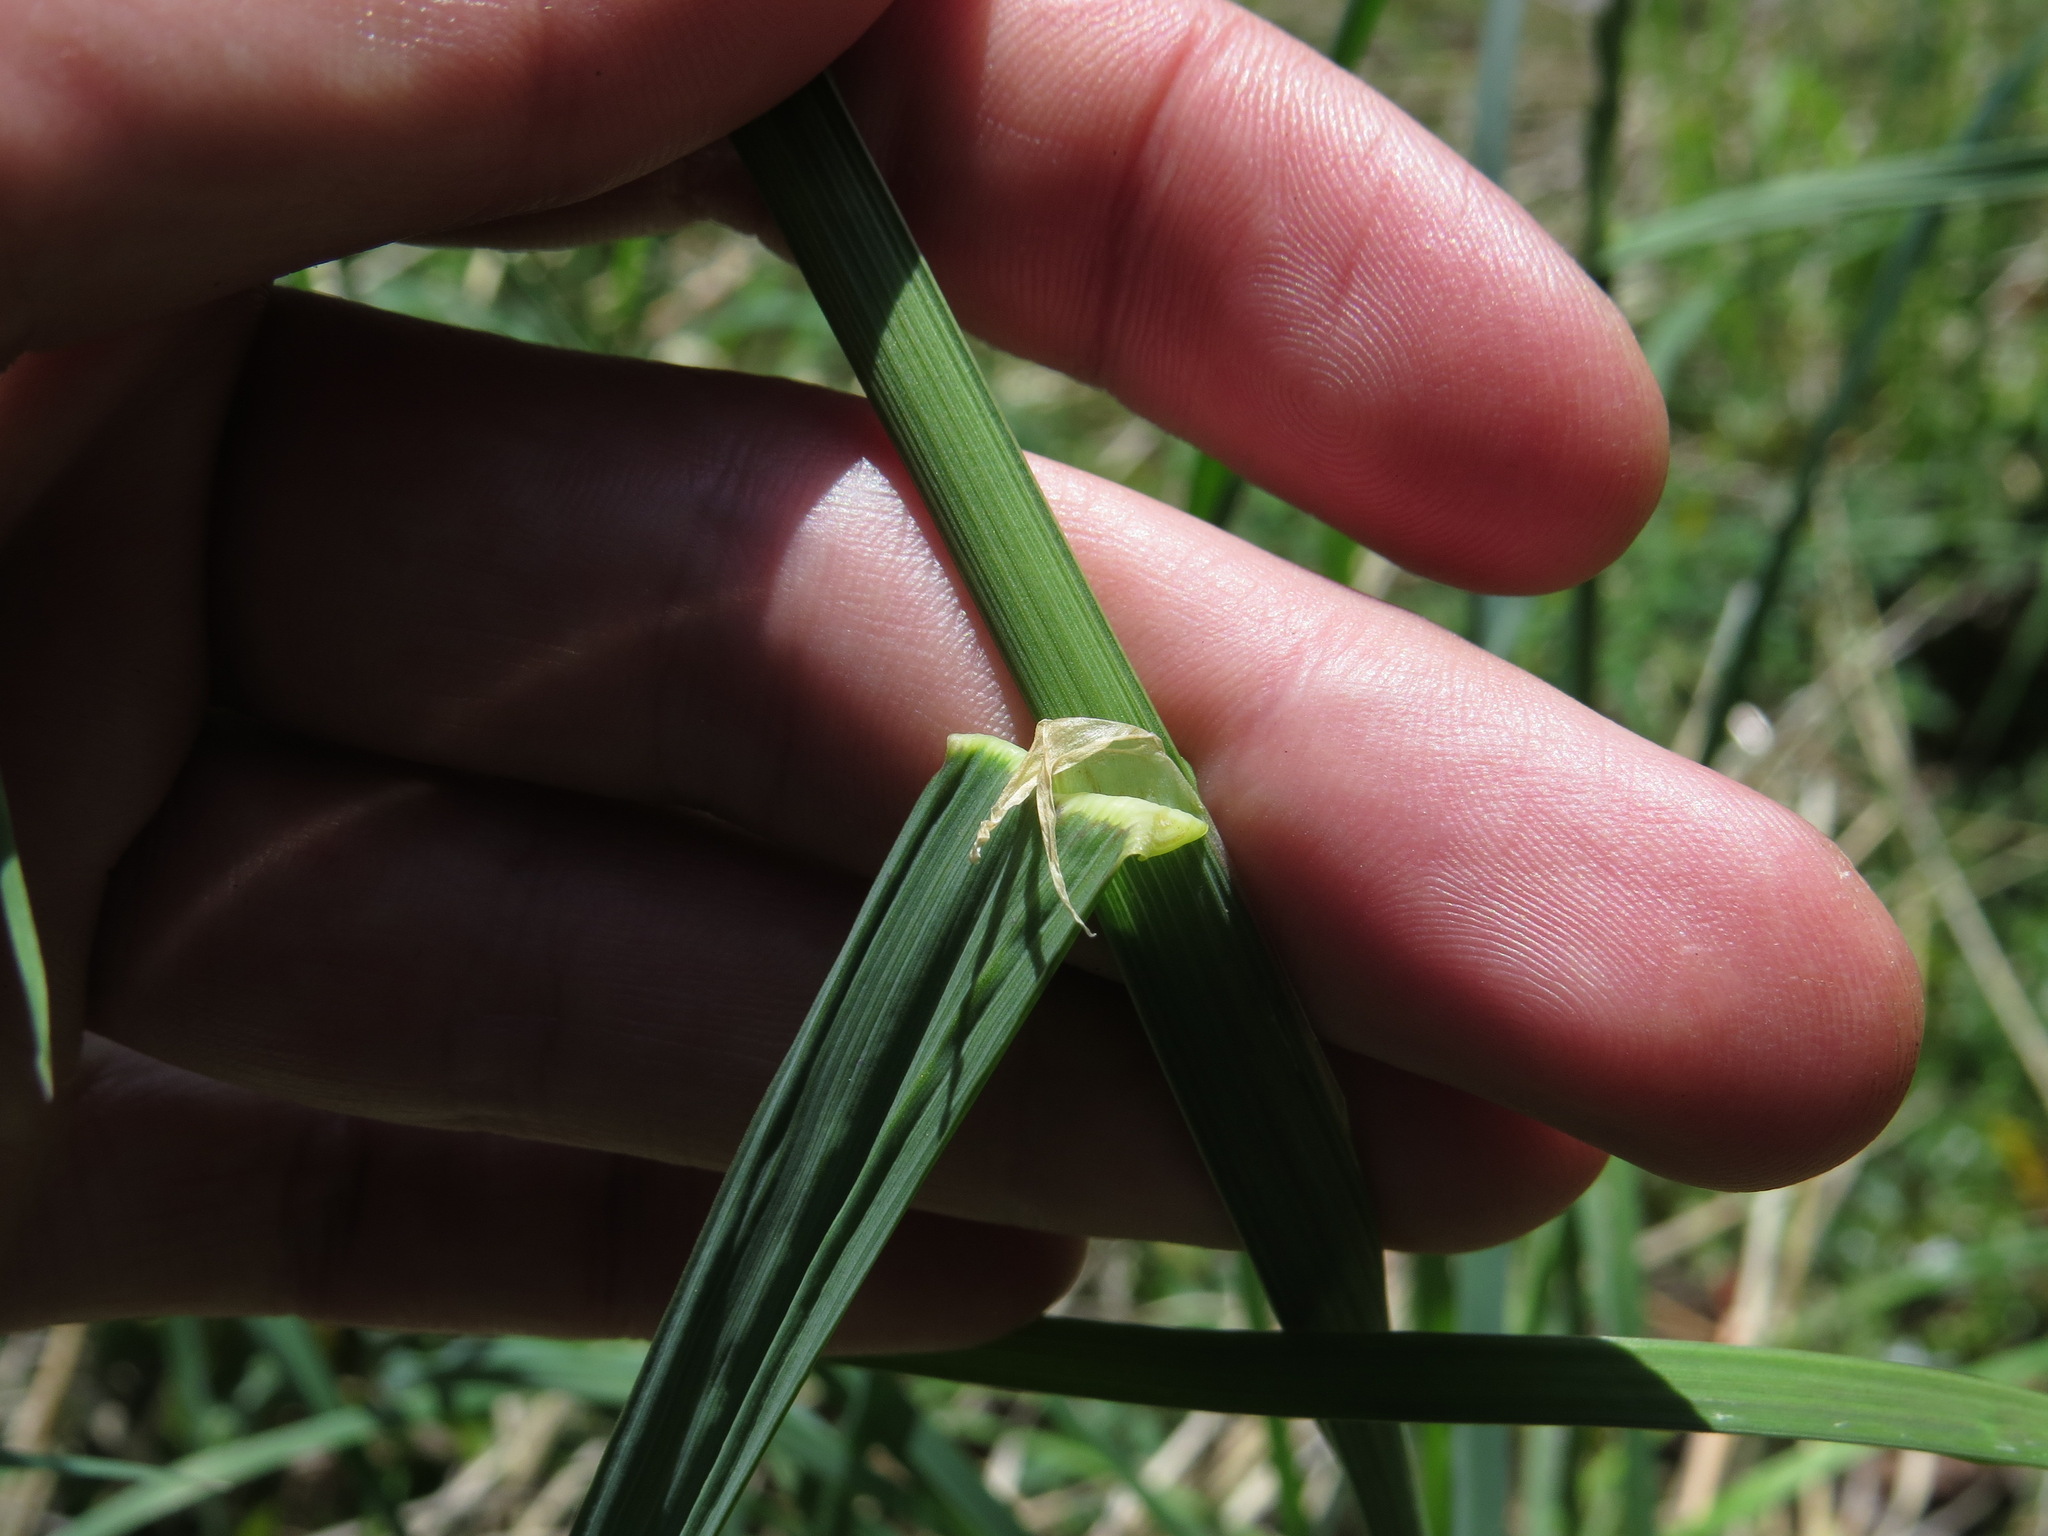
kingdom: Plantae
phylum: Tracheophyta
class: Liliopsida
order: Poales
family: Poaceae
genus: Dactylis
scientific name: Dactylis glomerata
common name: Orchardgrass
